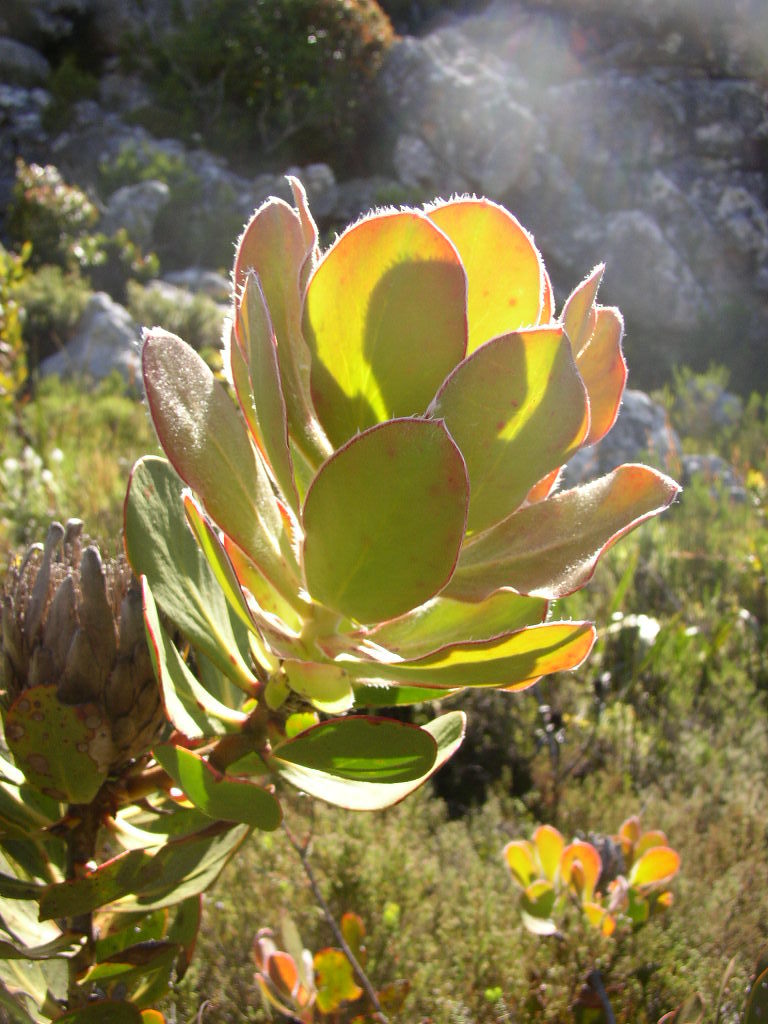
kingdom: Plantae
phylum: Tracheophyta
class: Magnoliopsida
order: Proteales
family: Proteaceae
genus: Protea
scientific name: Protea speciosa
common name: Brown-beard sugarbush
